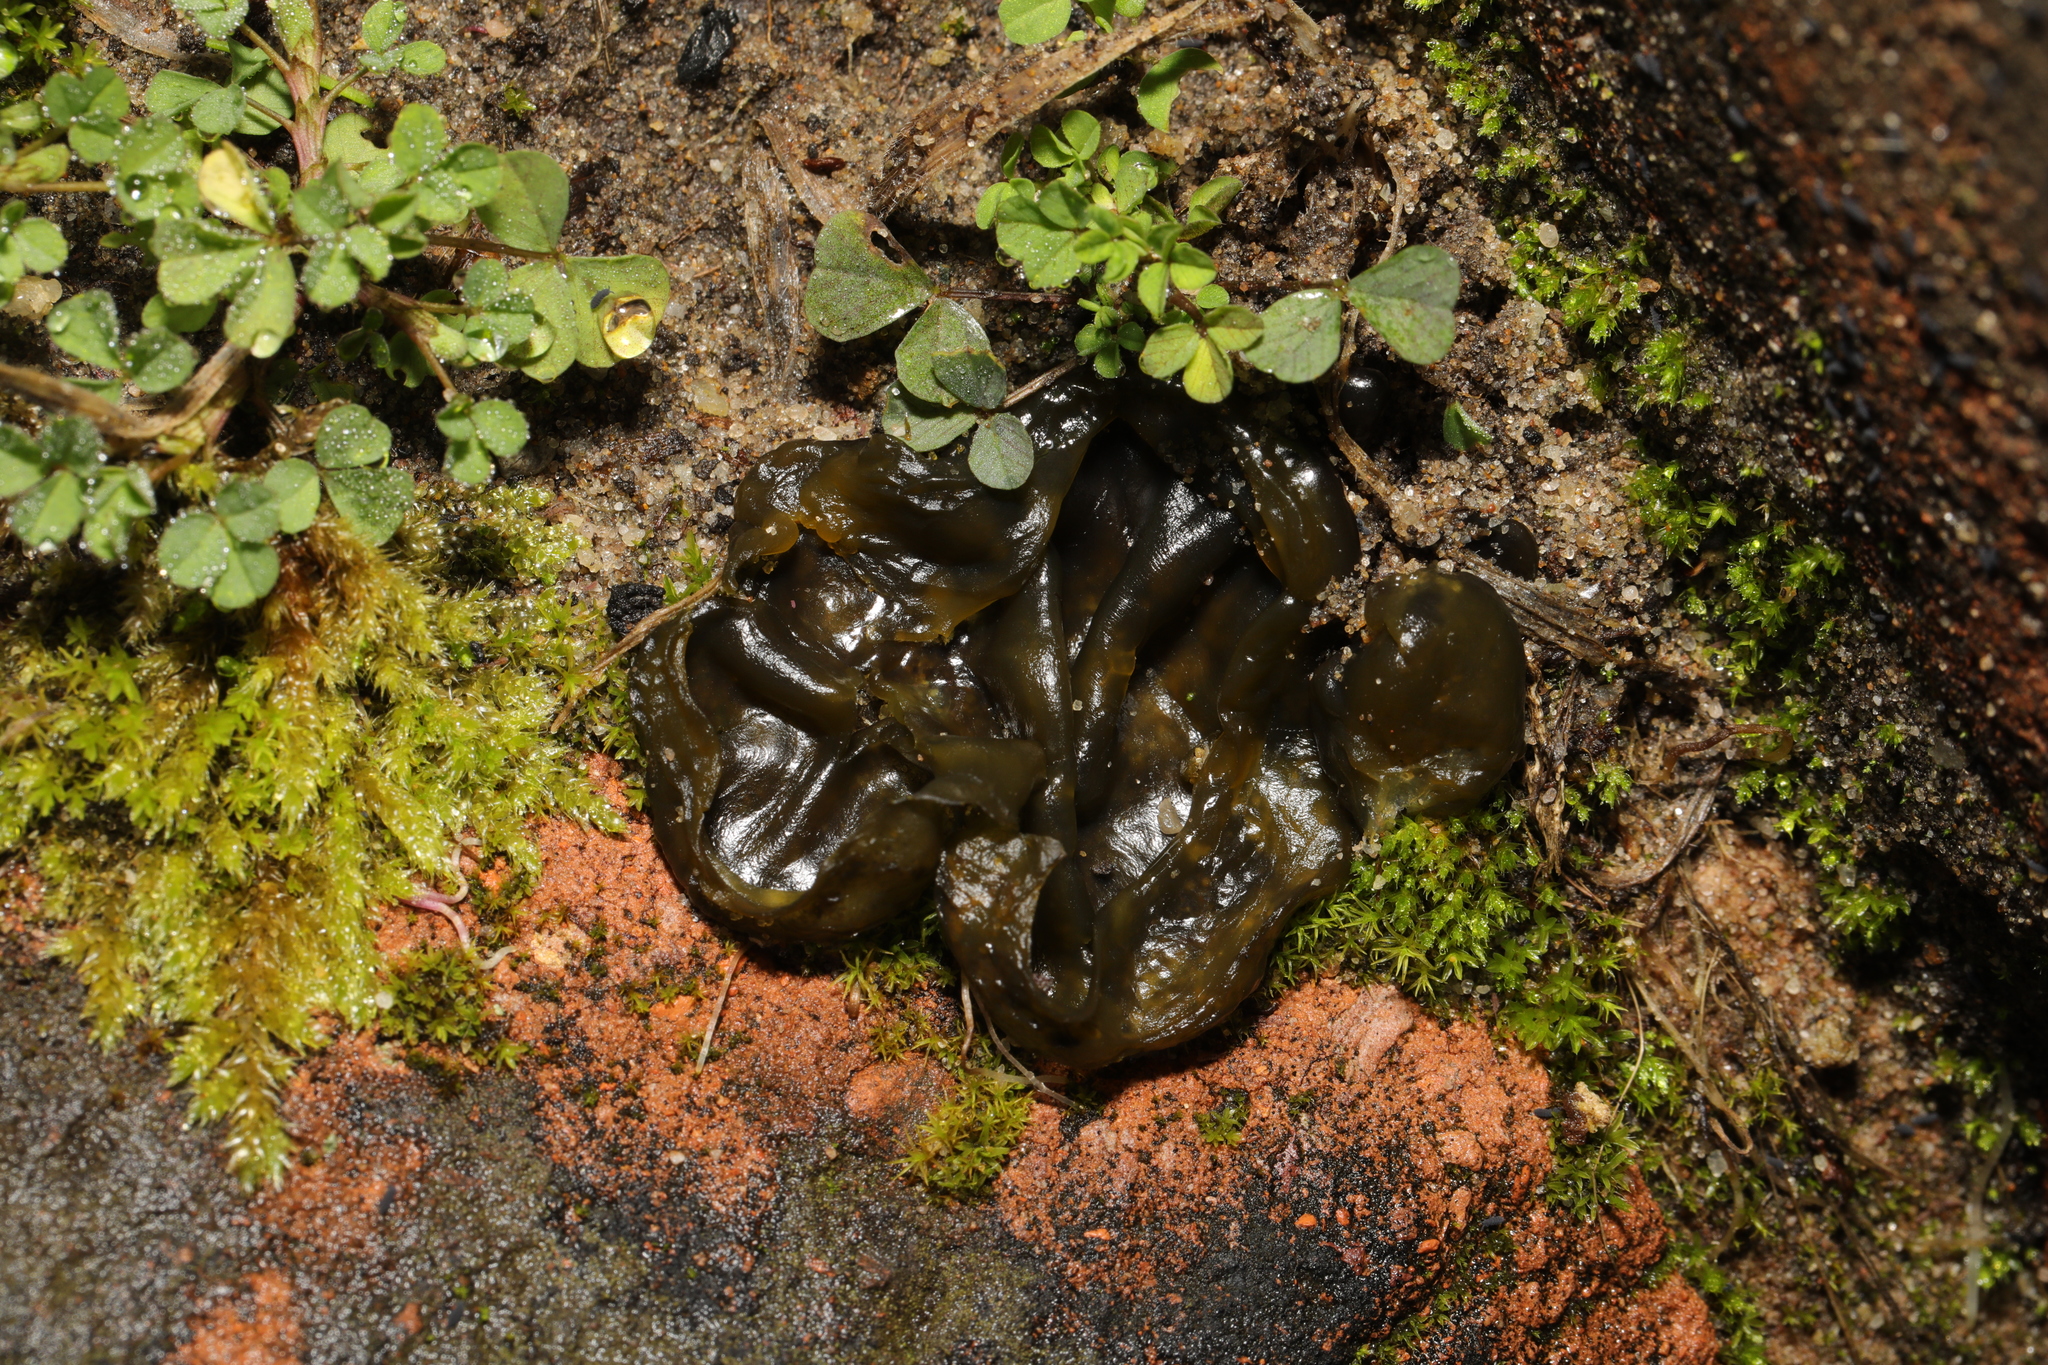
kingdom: Bacteria
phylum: Cyanobacteria
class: Cyanobacteriia
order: Cyanobacteriales
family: Nostocaceae
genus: Nostoc
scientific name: Nostoc commune
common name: Star jelly
